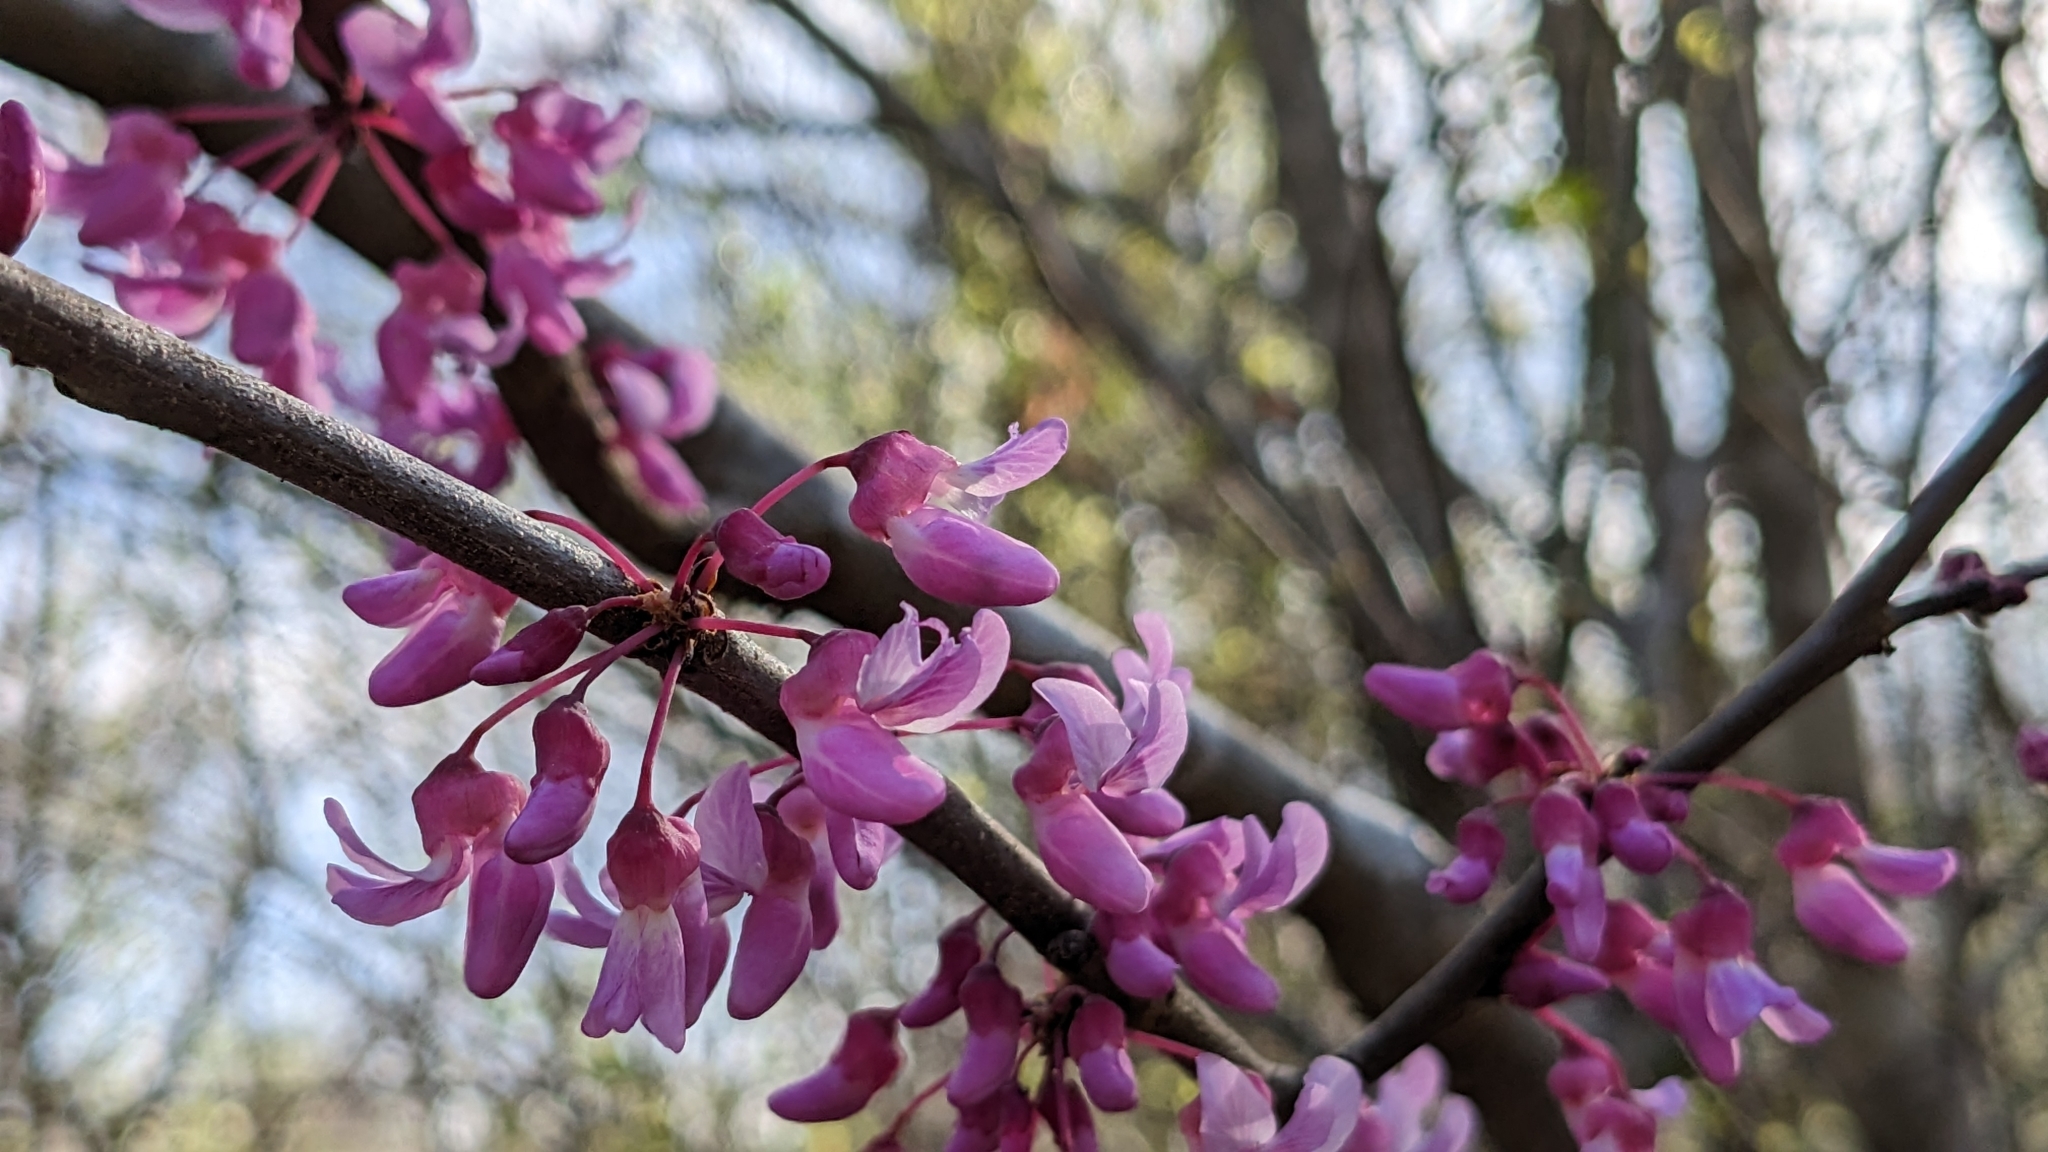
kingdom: Plantae
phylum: Tracheophyta
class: Magnoliopsida
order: Fabales
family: Fabaceae
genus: Cercis
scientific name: Cercis canadensis
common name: Eastern redbud
